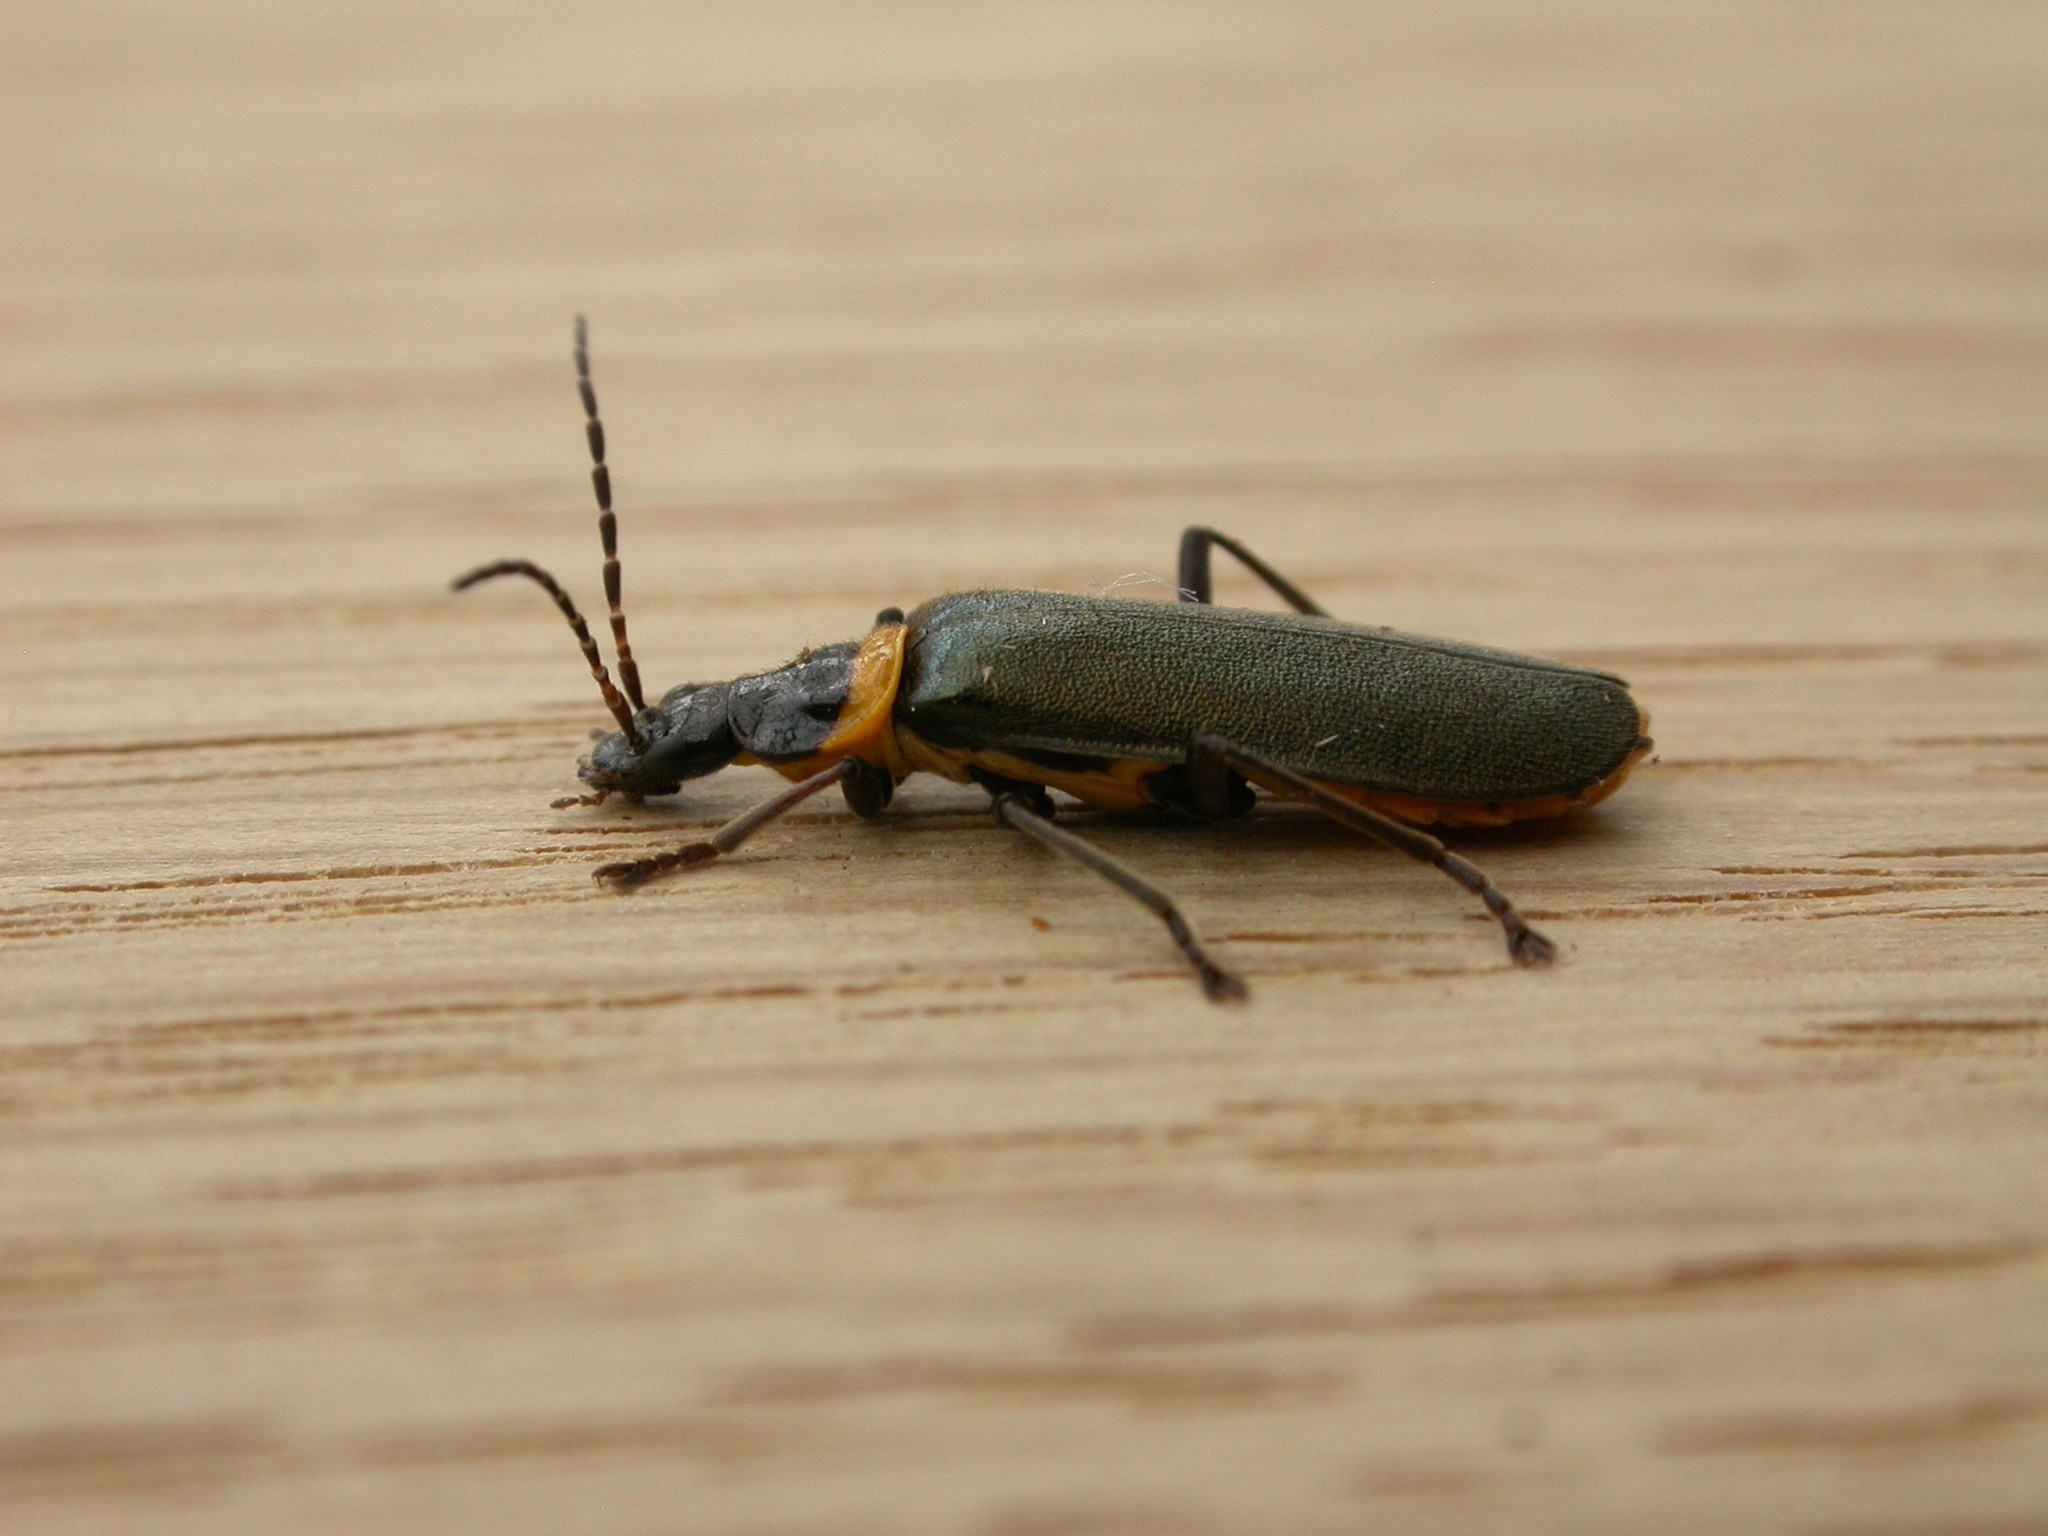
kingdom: Animalia
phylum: Arthropoda
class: Insecta
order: Coleoptera
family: Cantharidae
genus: Chauliognathus
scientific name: Chauliognathus
